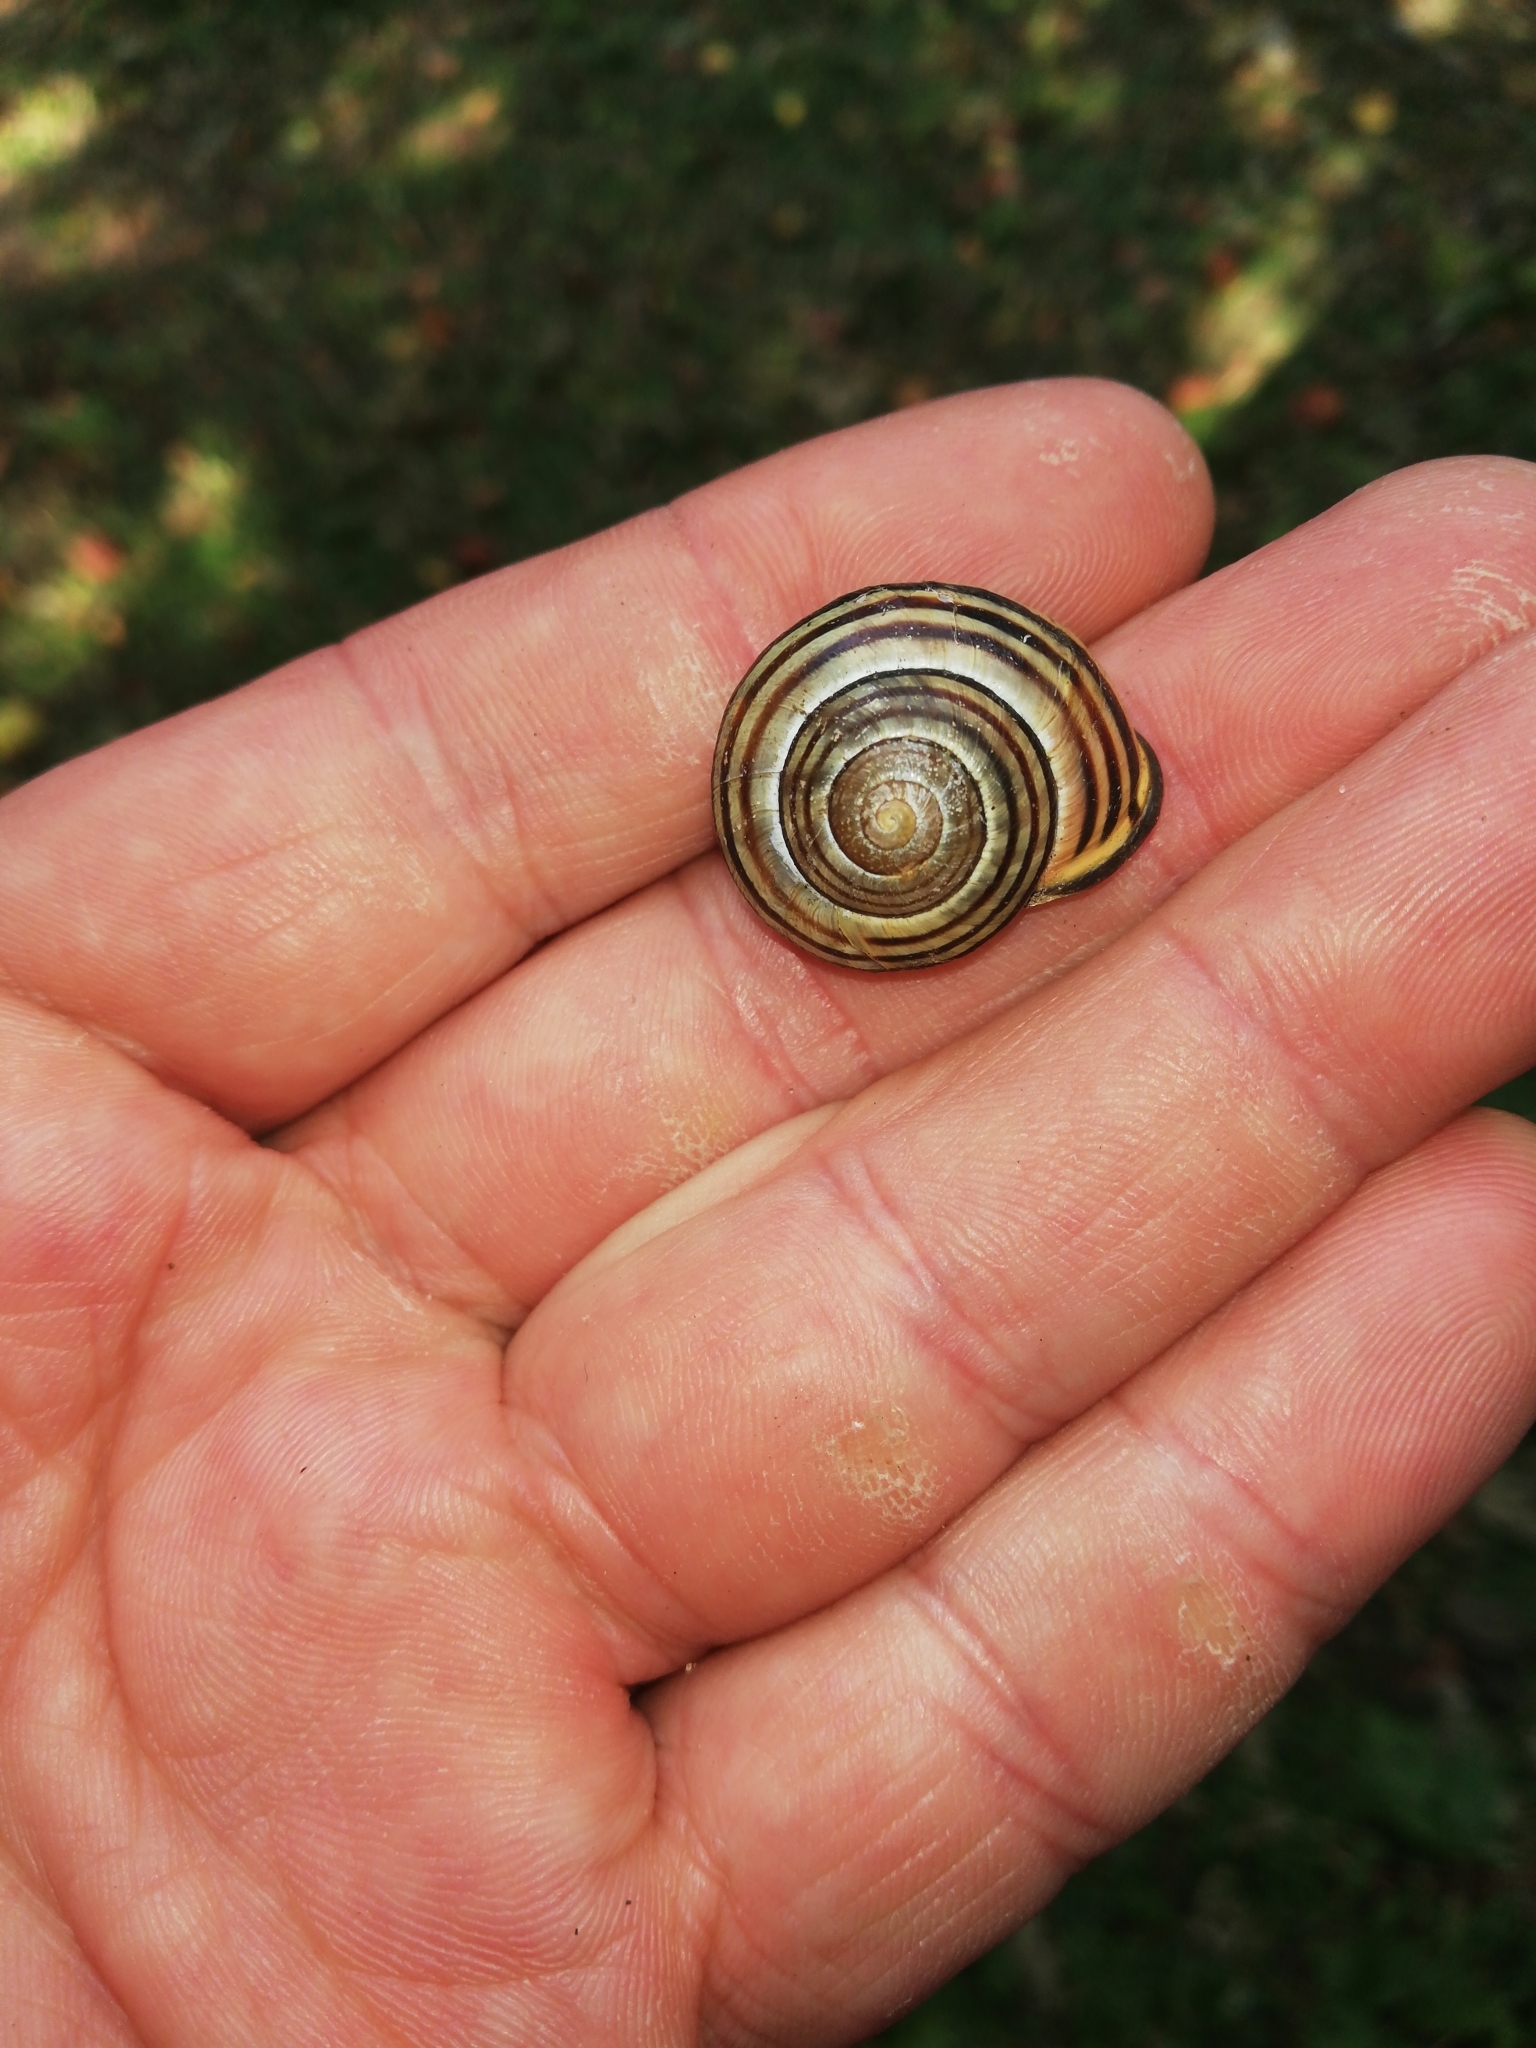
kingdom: Animalia
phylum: Mollusca
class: Gastropoda
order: Stylommatophora
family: Helicidae
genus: Cepaea
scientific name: Cepaea nemoralis
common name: Grovesnail
